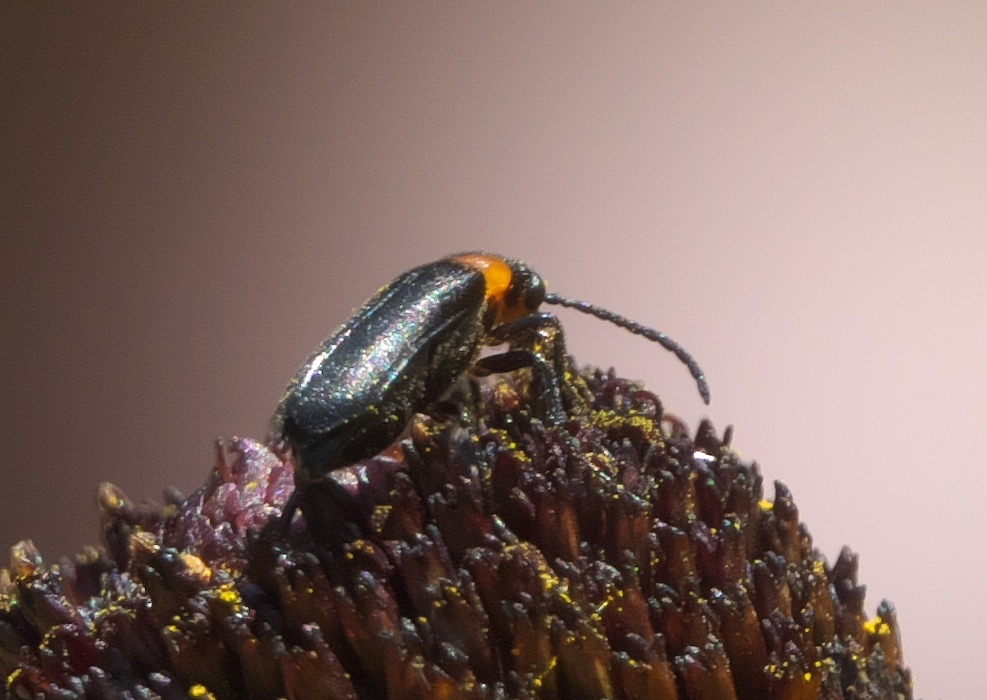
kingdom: Animalia
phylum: Arthropoda
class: Insecta
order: Coleoptera
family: Meloidae
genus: Nemognatha
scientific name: Nemognatha nemorensis
